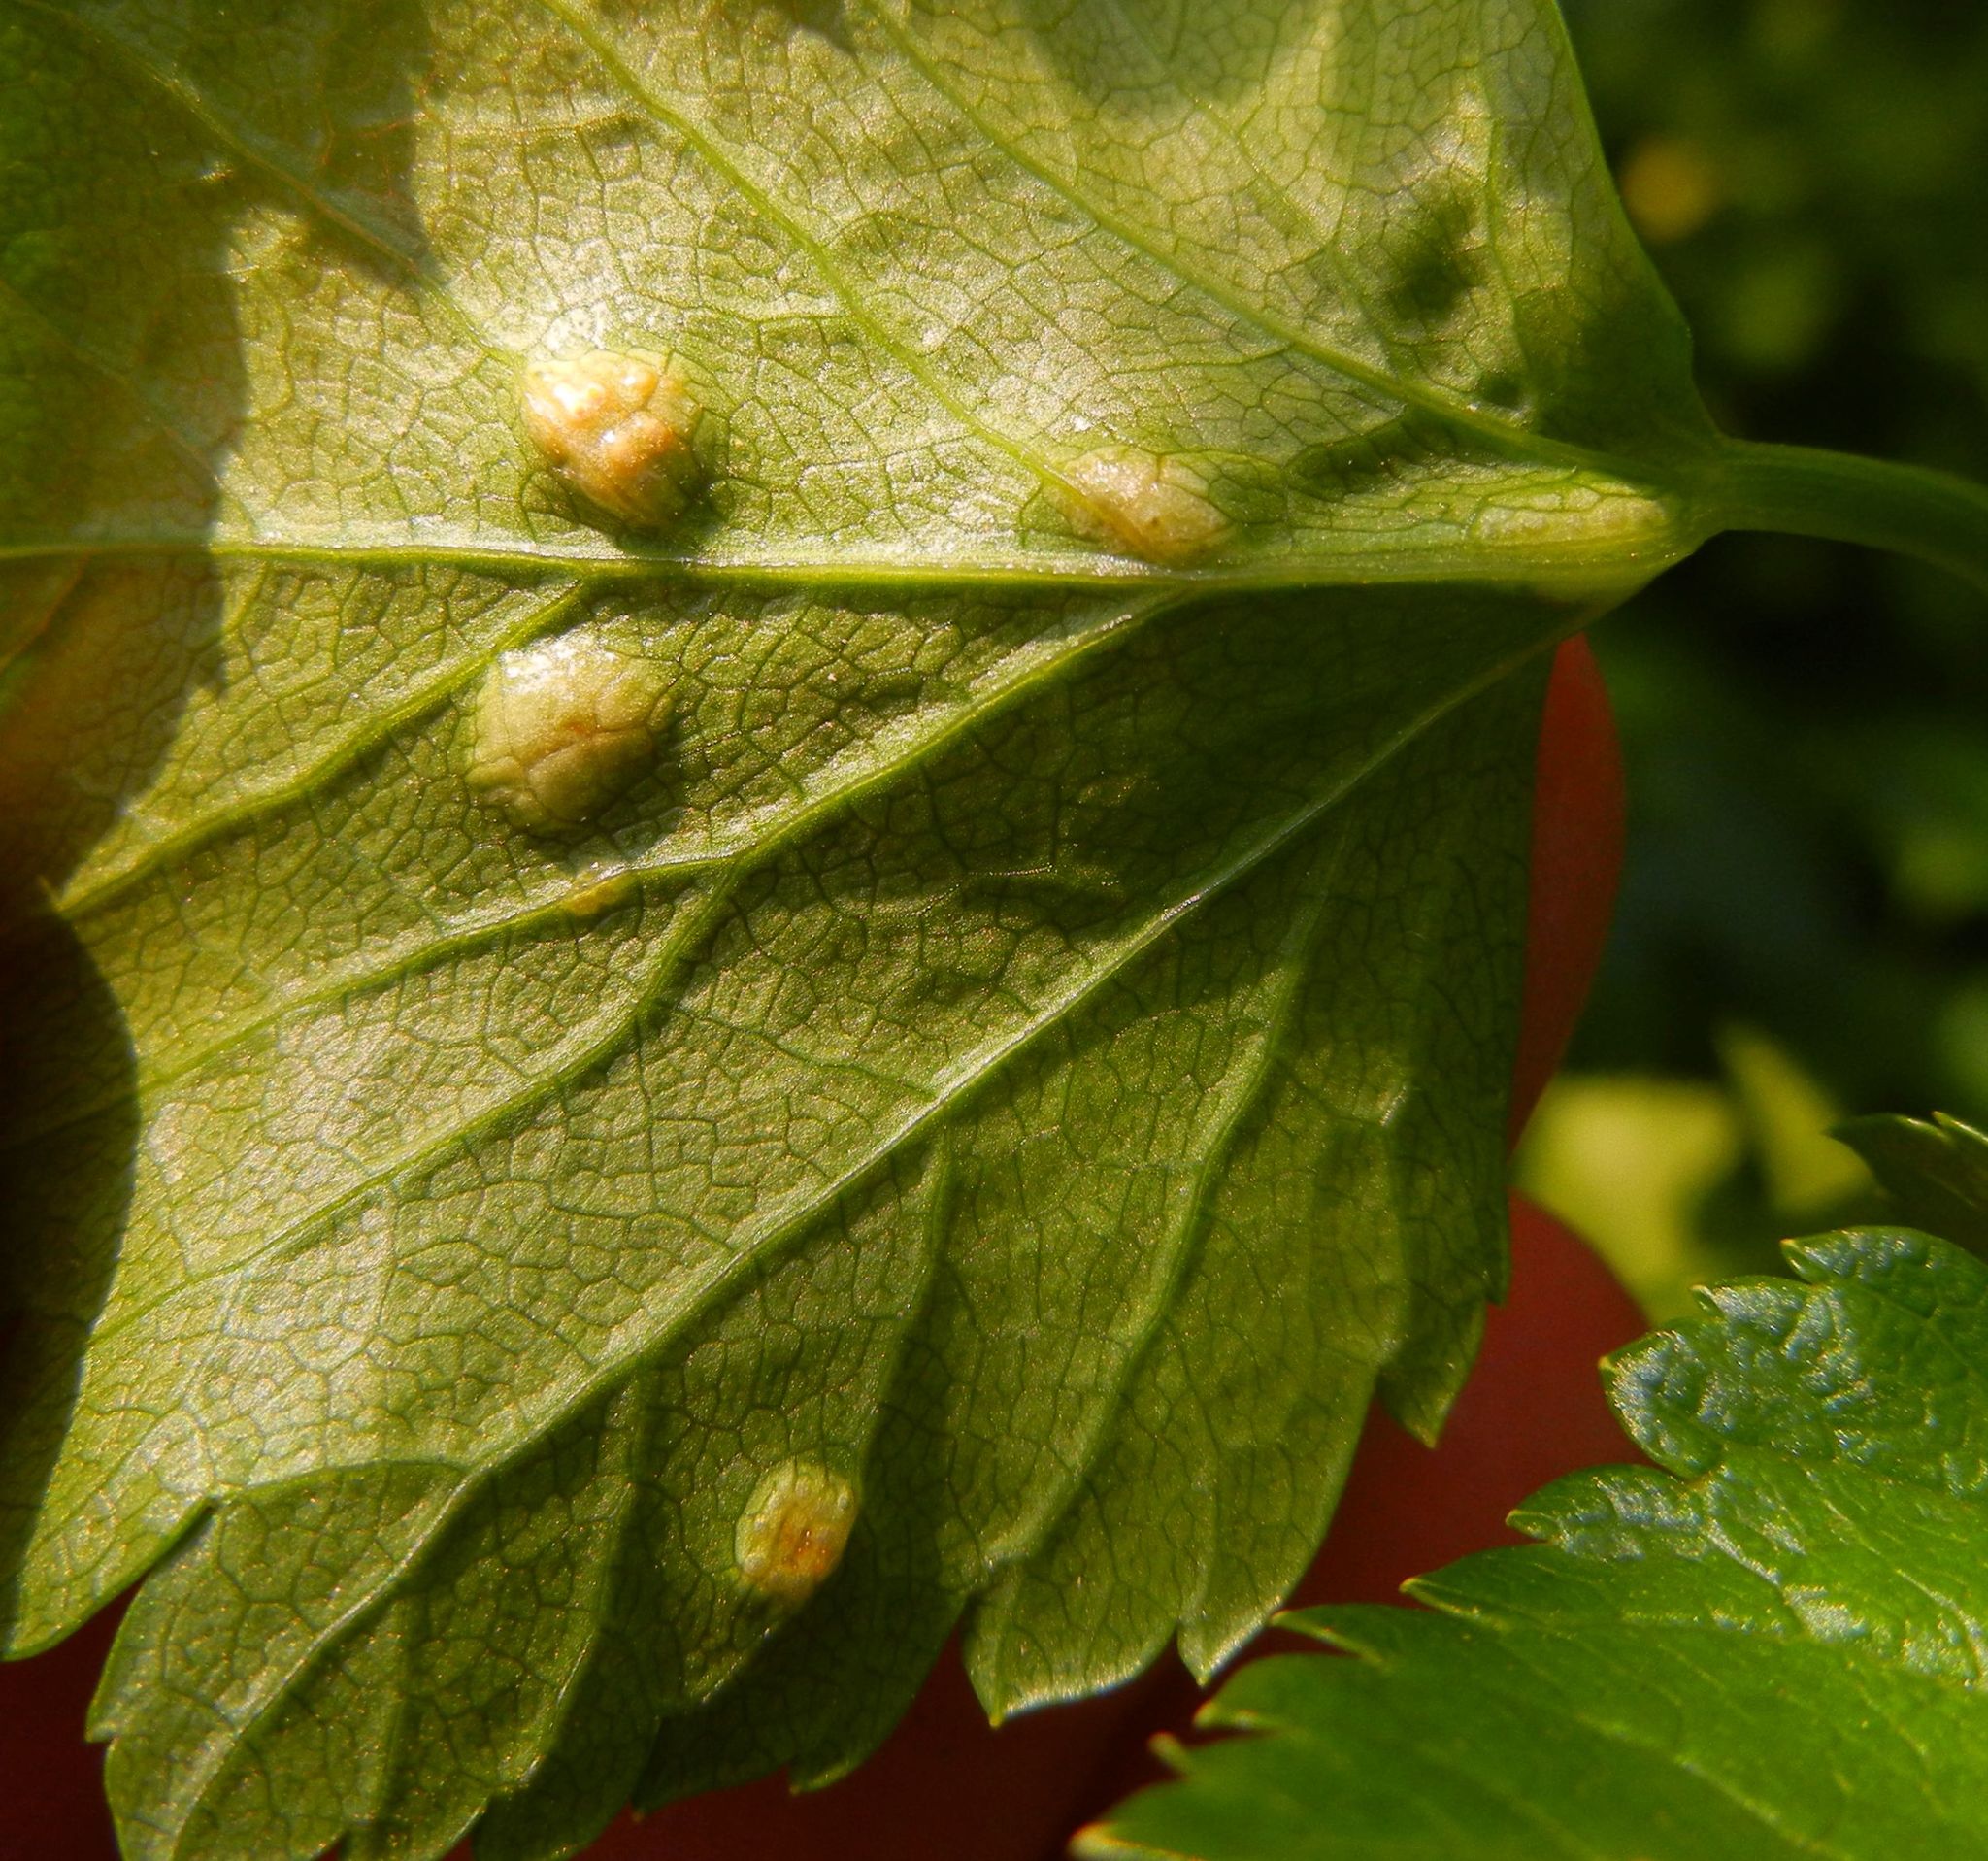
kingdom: Fungi
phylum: Basidiomycota
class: Pucciniomycetes
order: Pucciniales
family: Pucciniaceae
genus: Puccinia
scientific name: Puccinia smyrnii
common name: Alexanders rust
